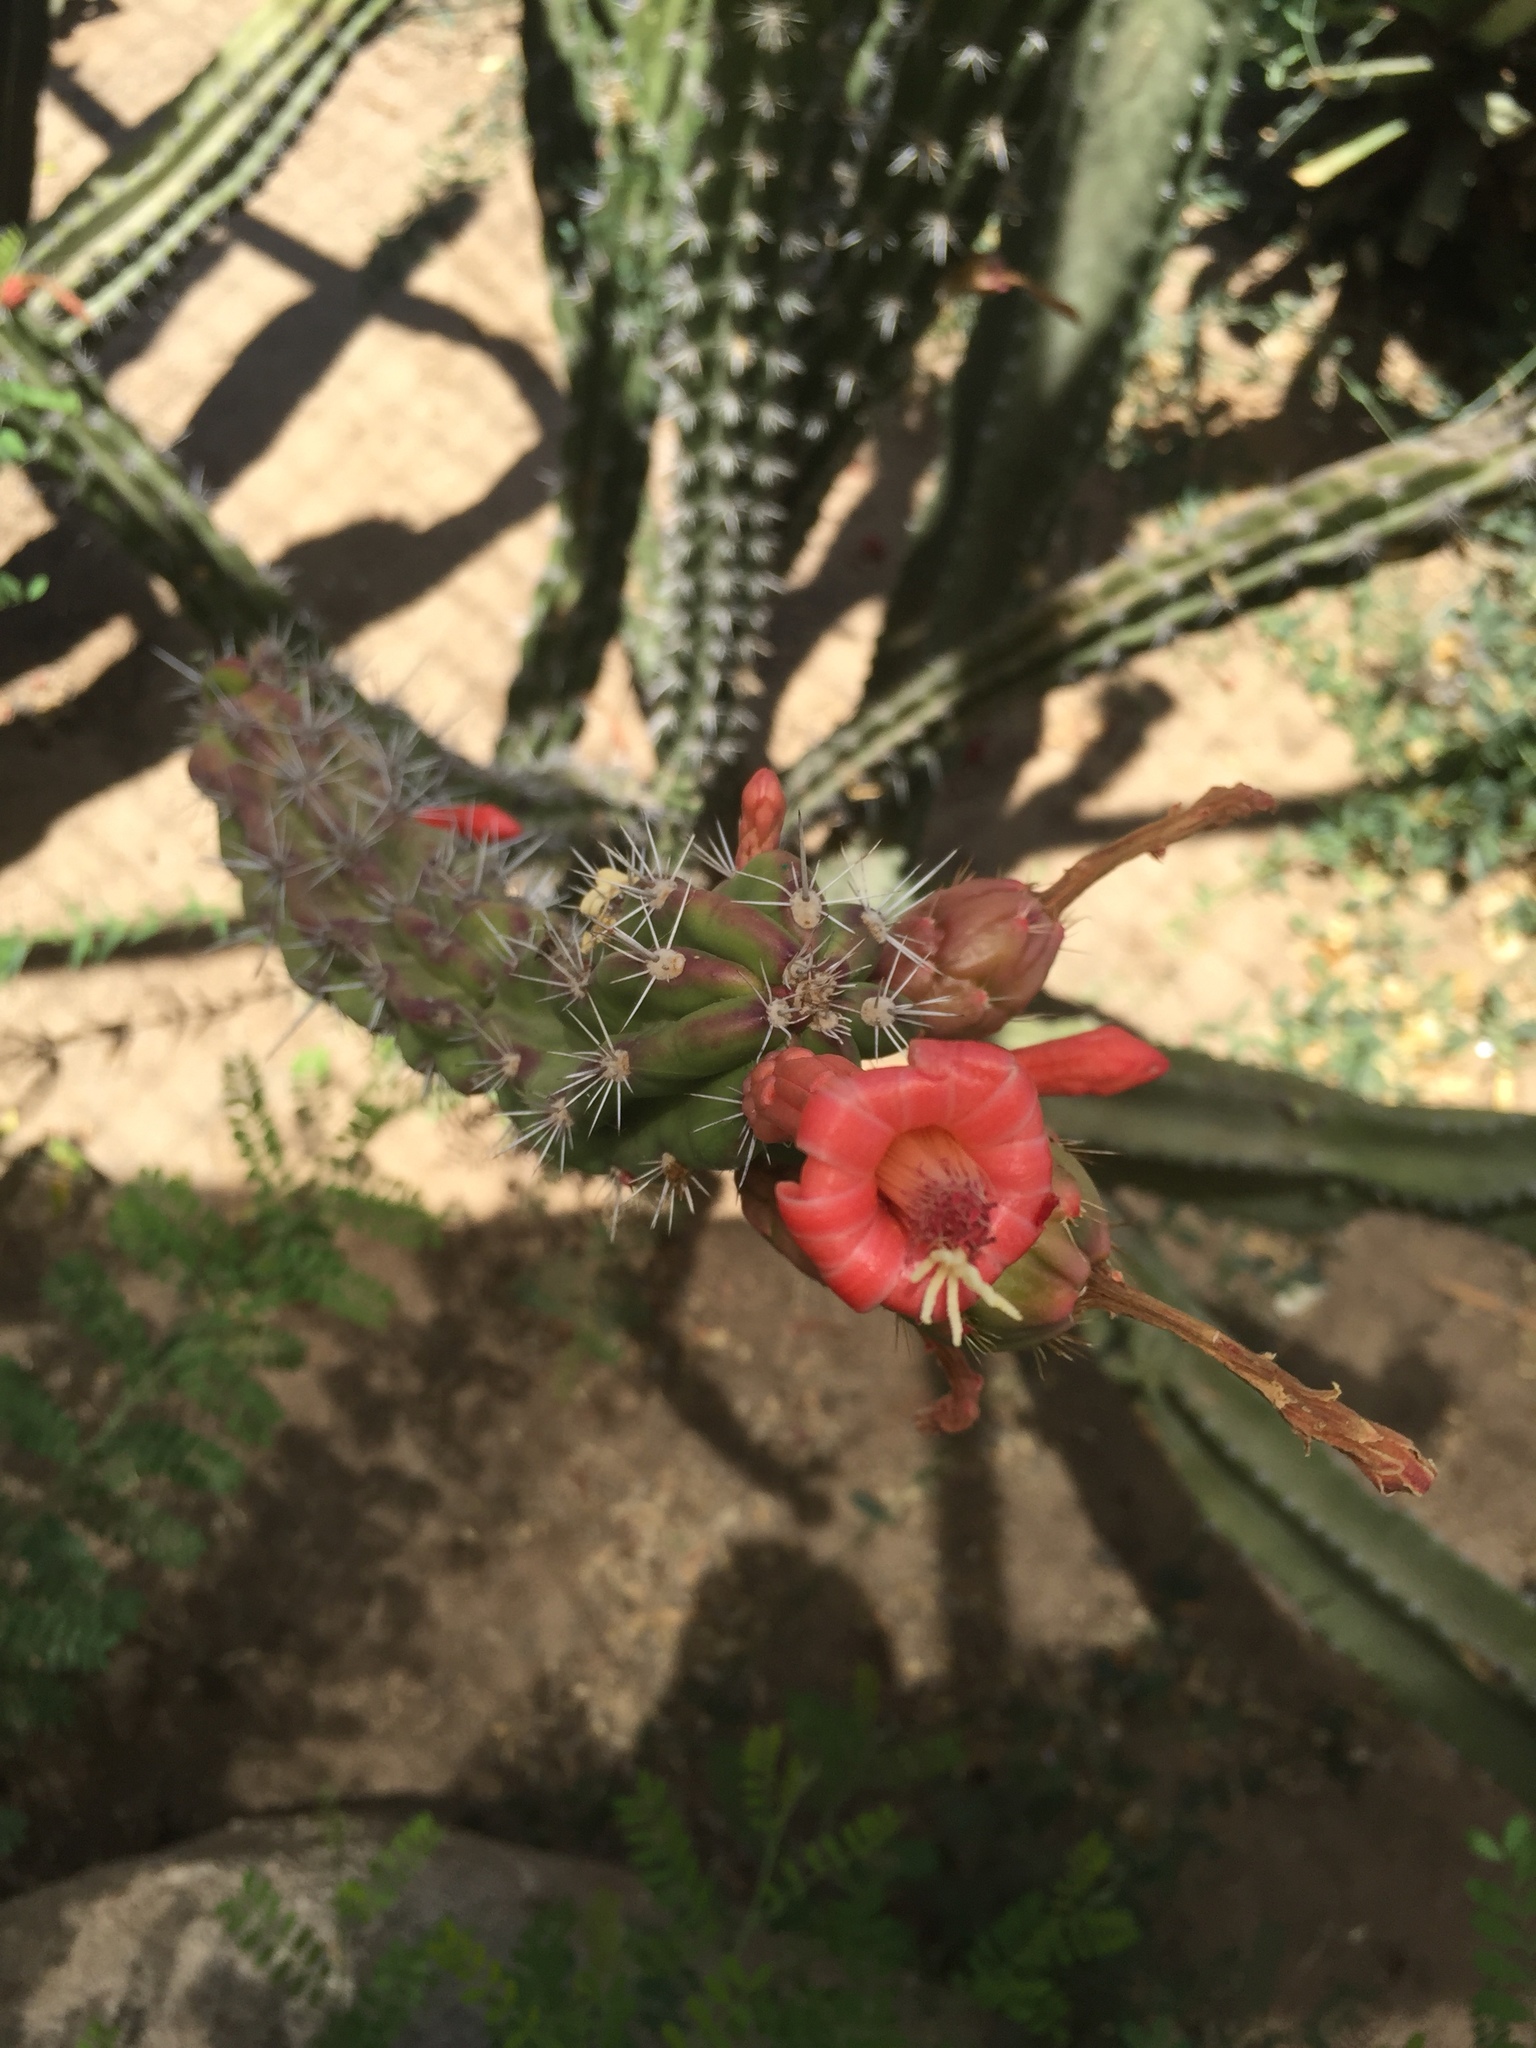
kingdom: Plantae
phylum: Tracheophyta
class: Magnoliopsida
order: Caryophyllales
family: Cactaceae
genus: Stenocereus
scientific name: Stenocereus alamosensis
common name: Octopus cactus
